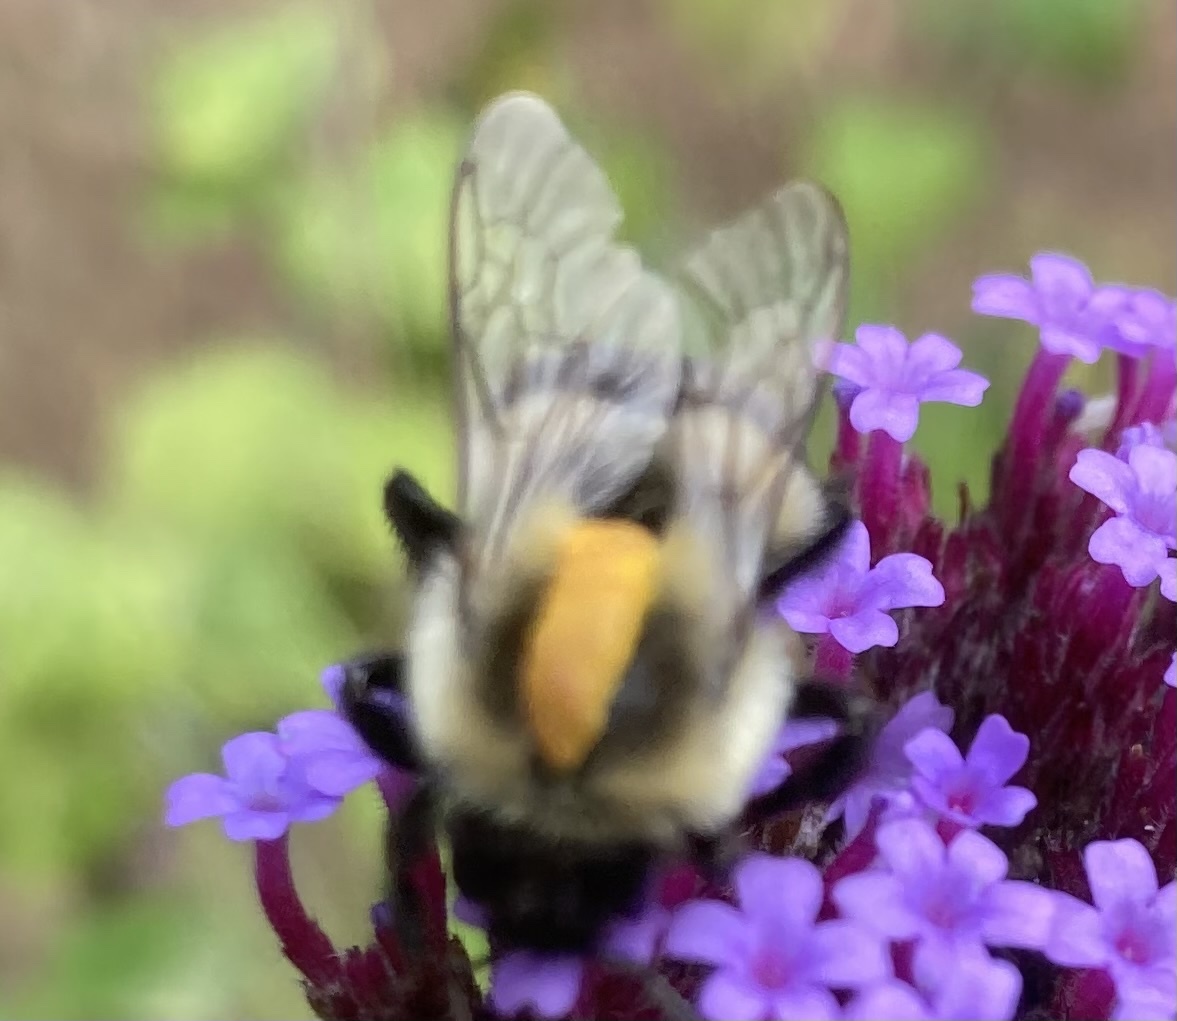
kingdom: Animalia
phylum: Arthropoda
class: Insecta
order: Hymenoptera
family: Apidae
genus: Bombus
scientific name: Bombus impatiens
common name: Common eastern bumble bee
